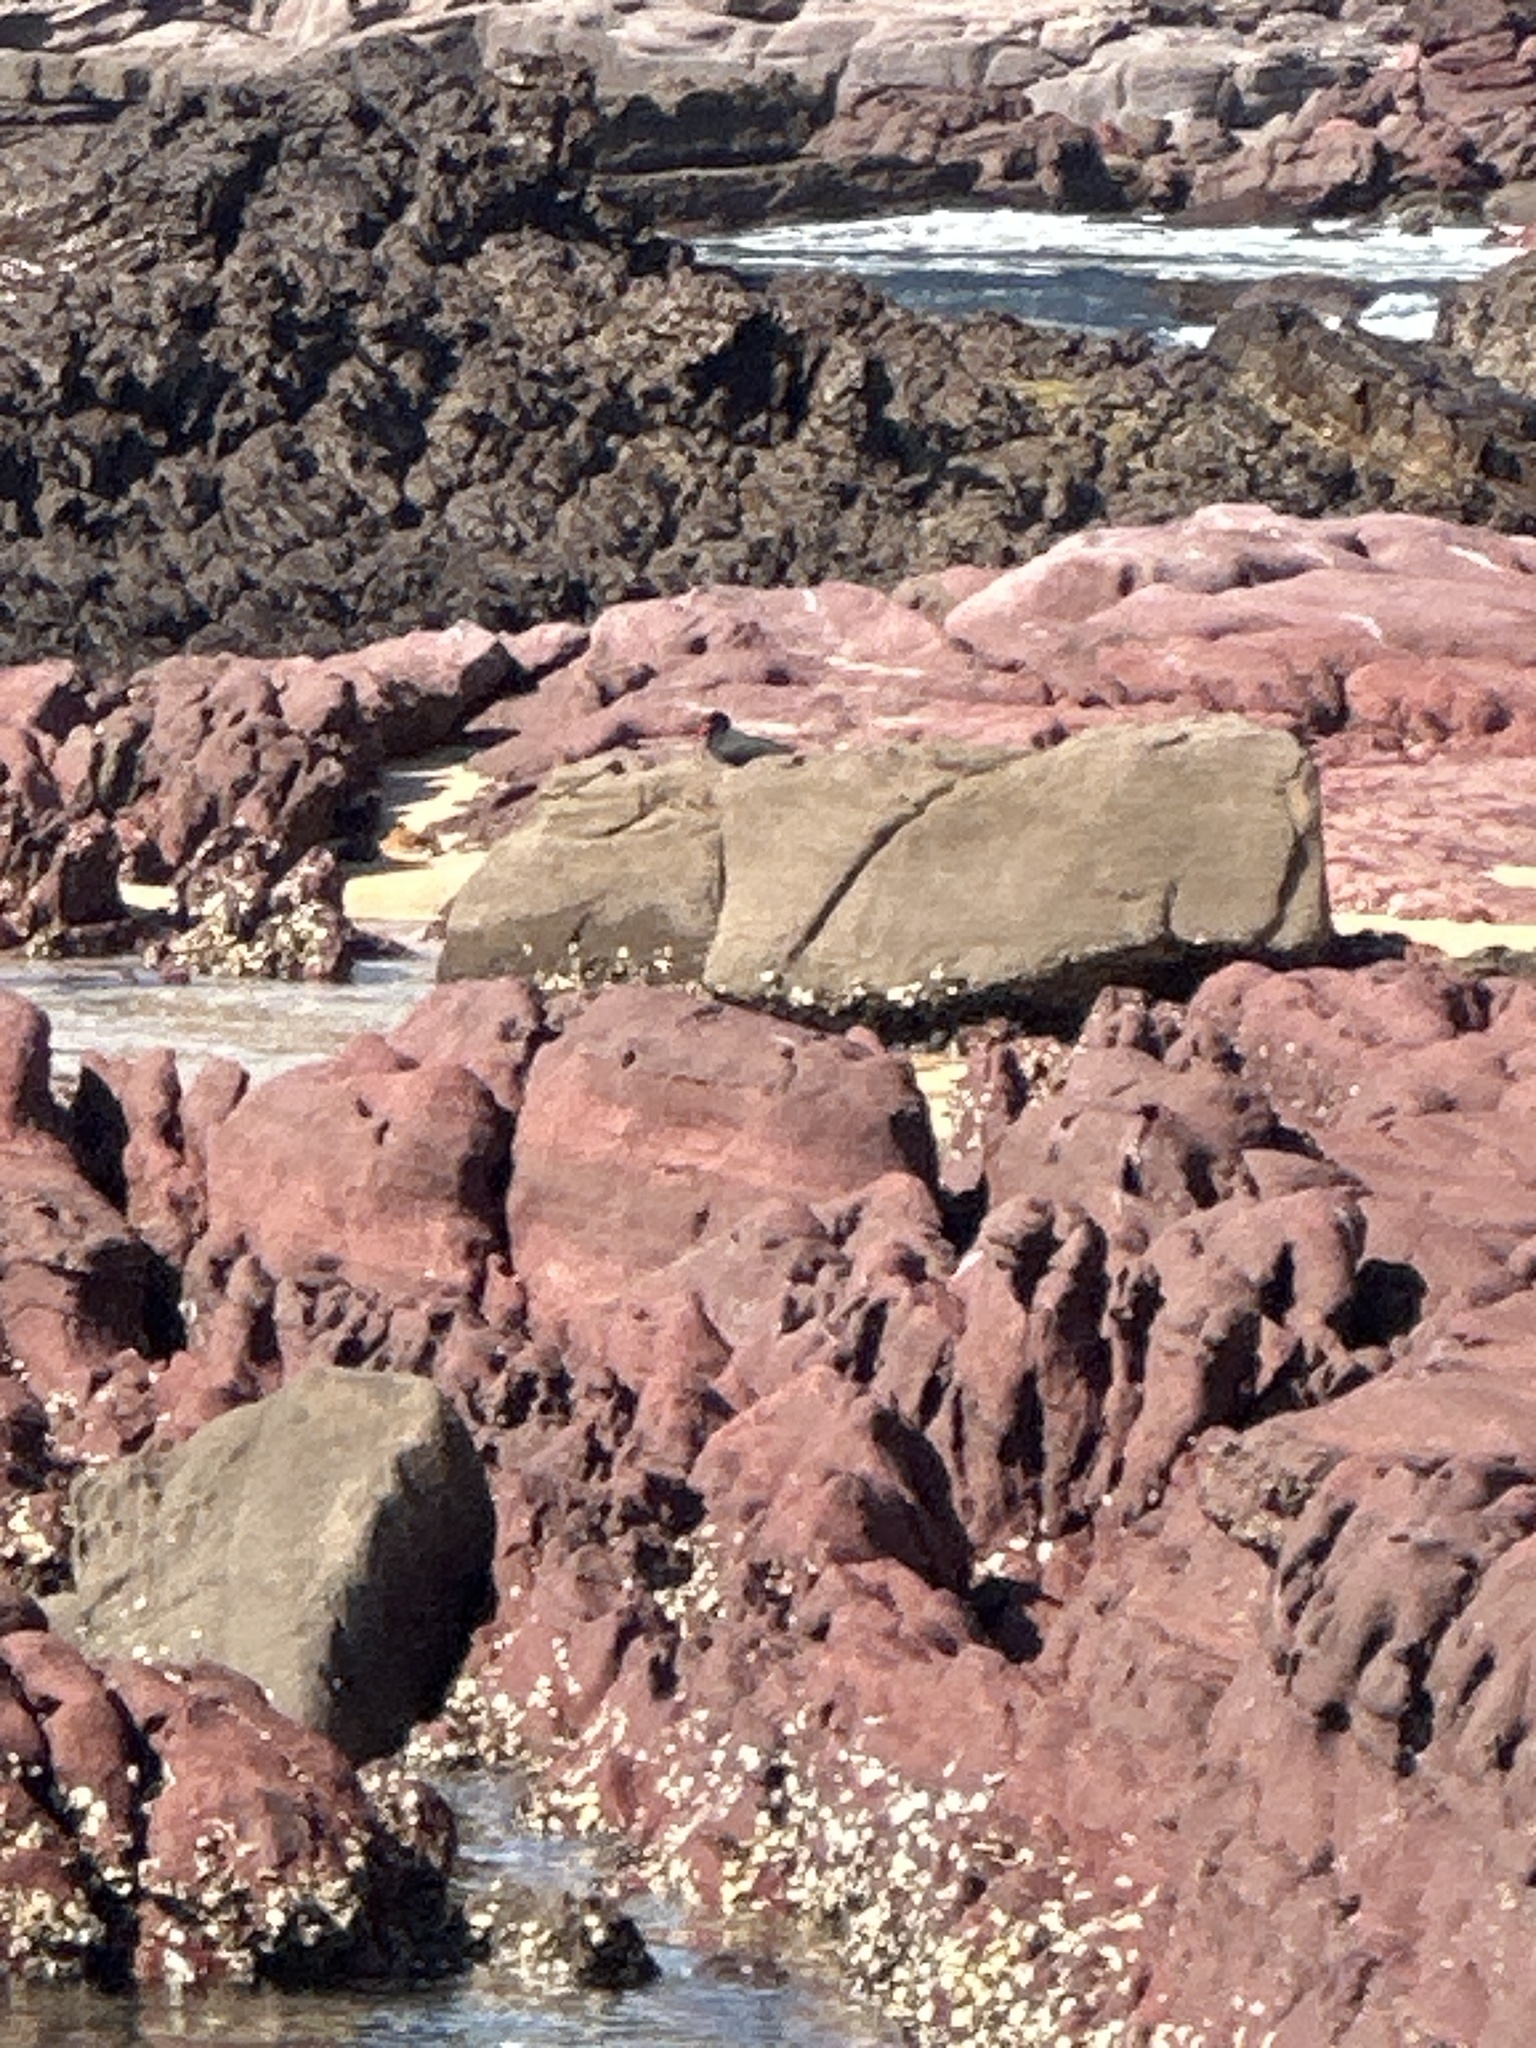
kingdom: Animalia
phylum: Chordata
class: Aves
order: Charadriiformes
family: Haematopodidae
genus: Haematopus
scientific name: Haematopus fuliginosus
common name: Sooty oystercatcher
